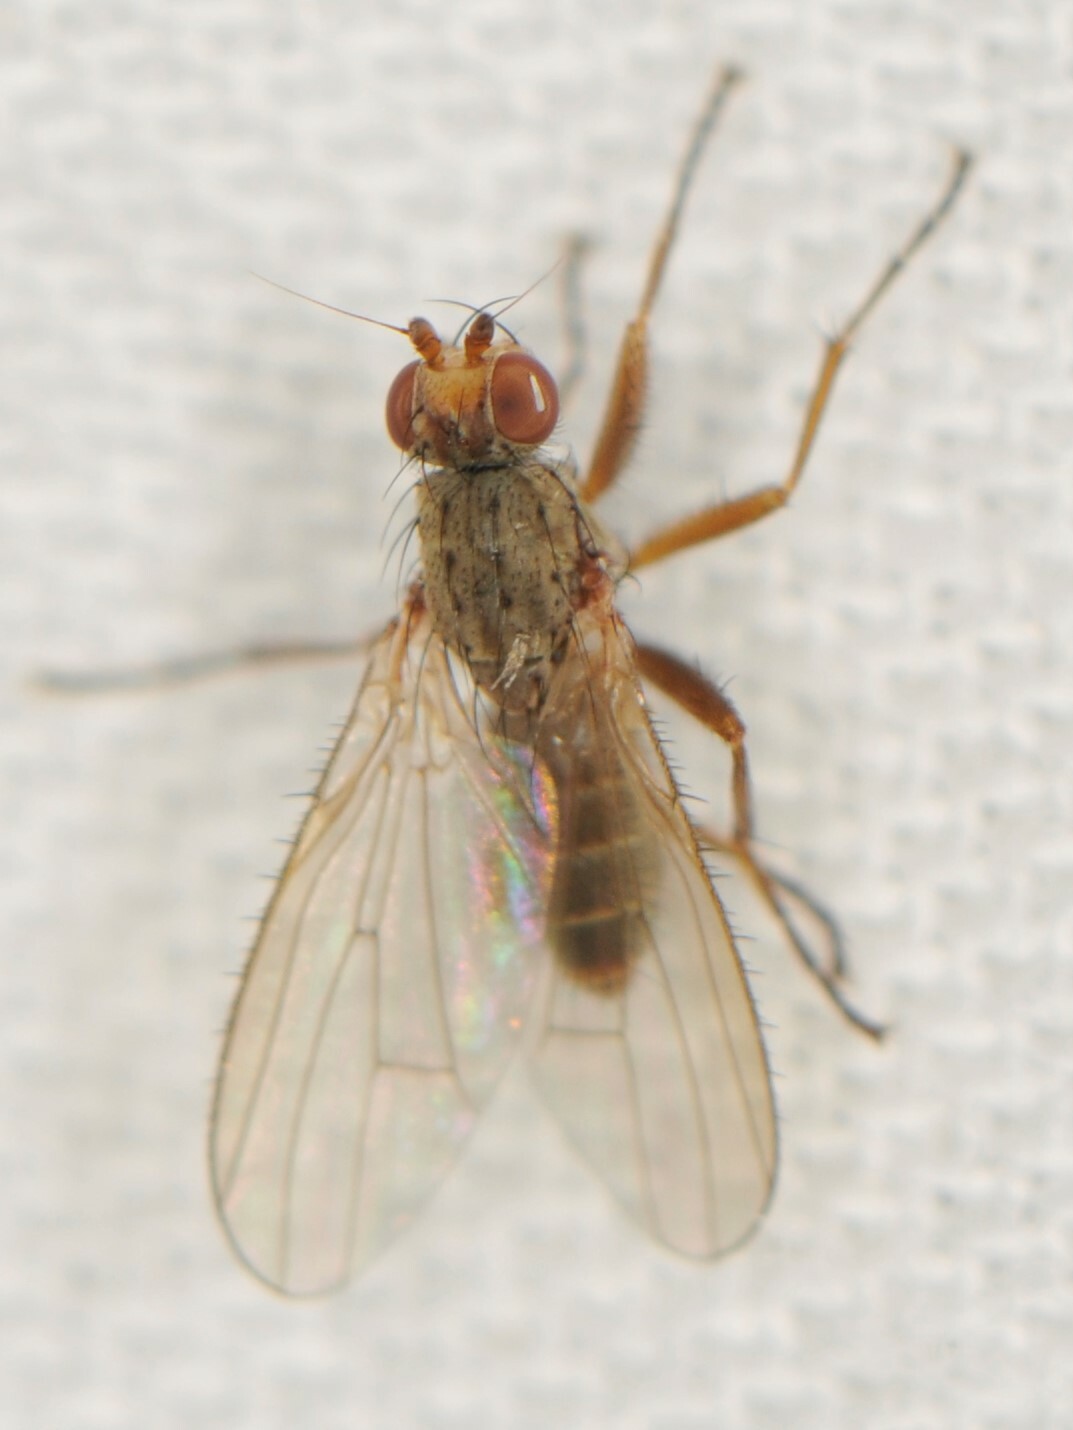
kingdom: Animalia
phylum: Arthropoda
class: Insecta
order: Diptera
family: Heleomyzidae
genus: Pseudoleria
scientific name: Pseudoleria
